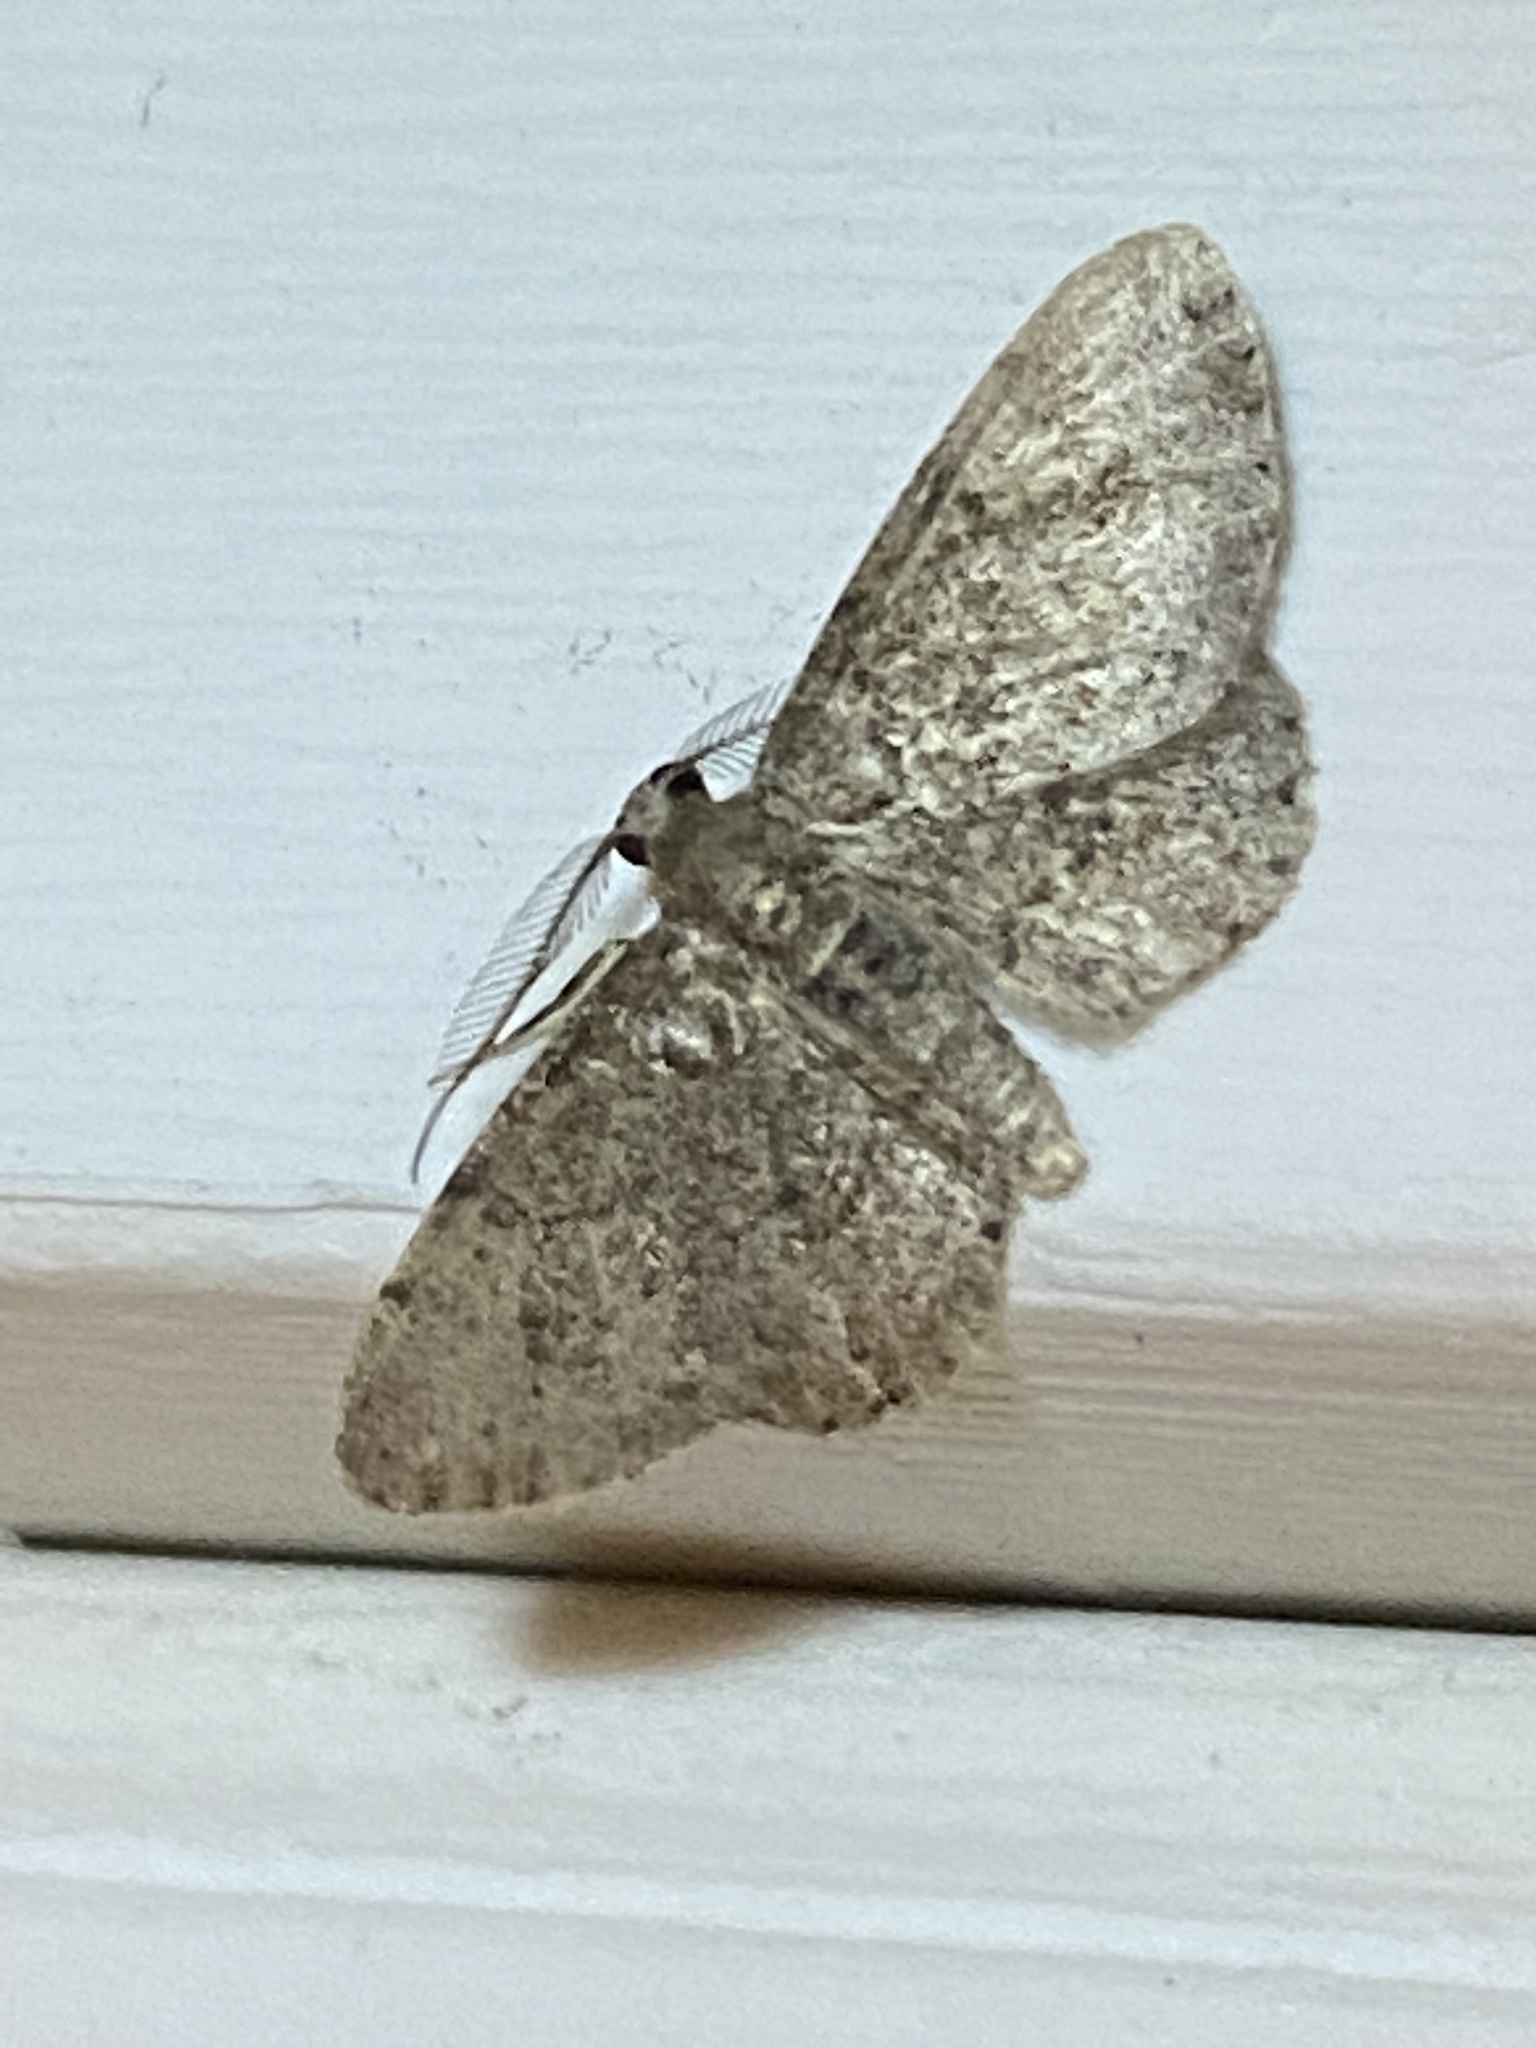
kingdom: Animalia
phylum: Arthropoda
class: Insecta
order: Lepidoptera
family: Geometridae
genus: Glenoides
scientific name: Glenoides texanaria
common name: Texas gray
